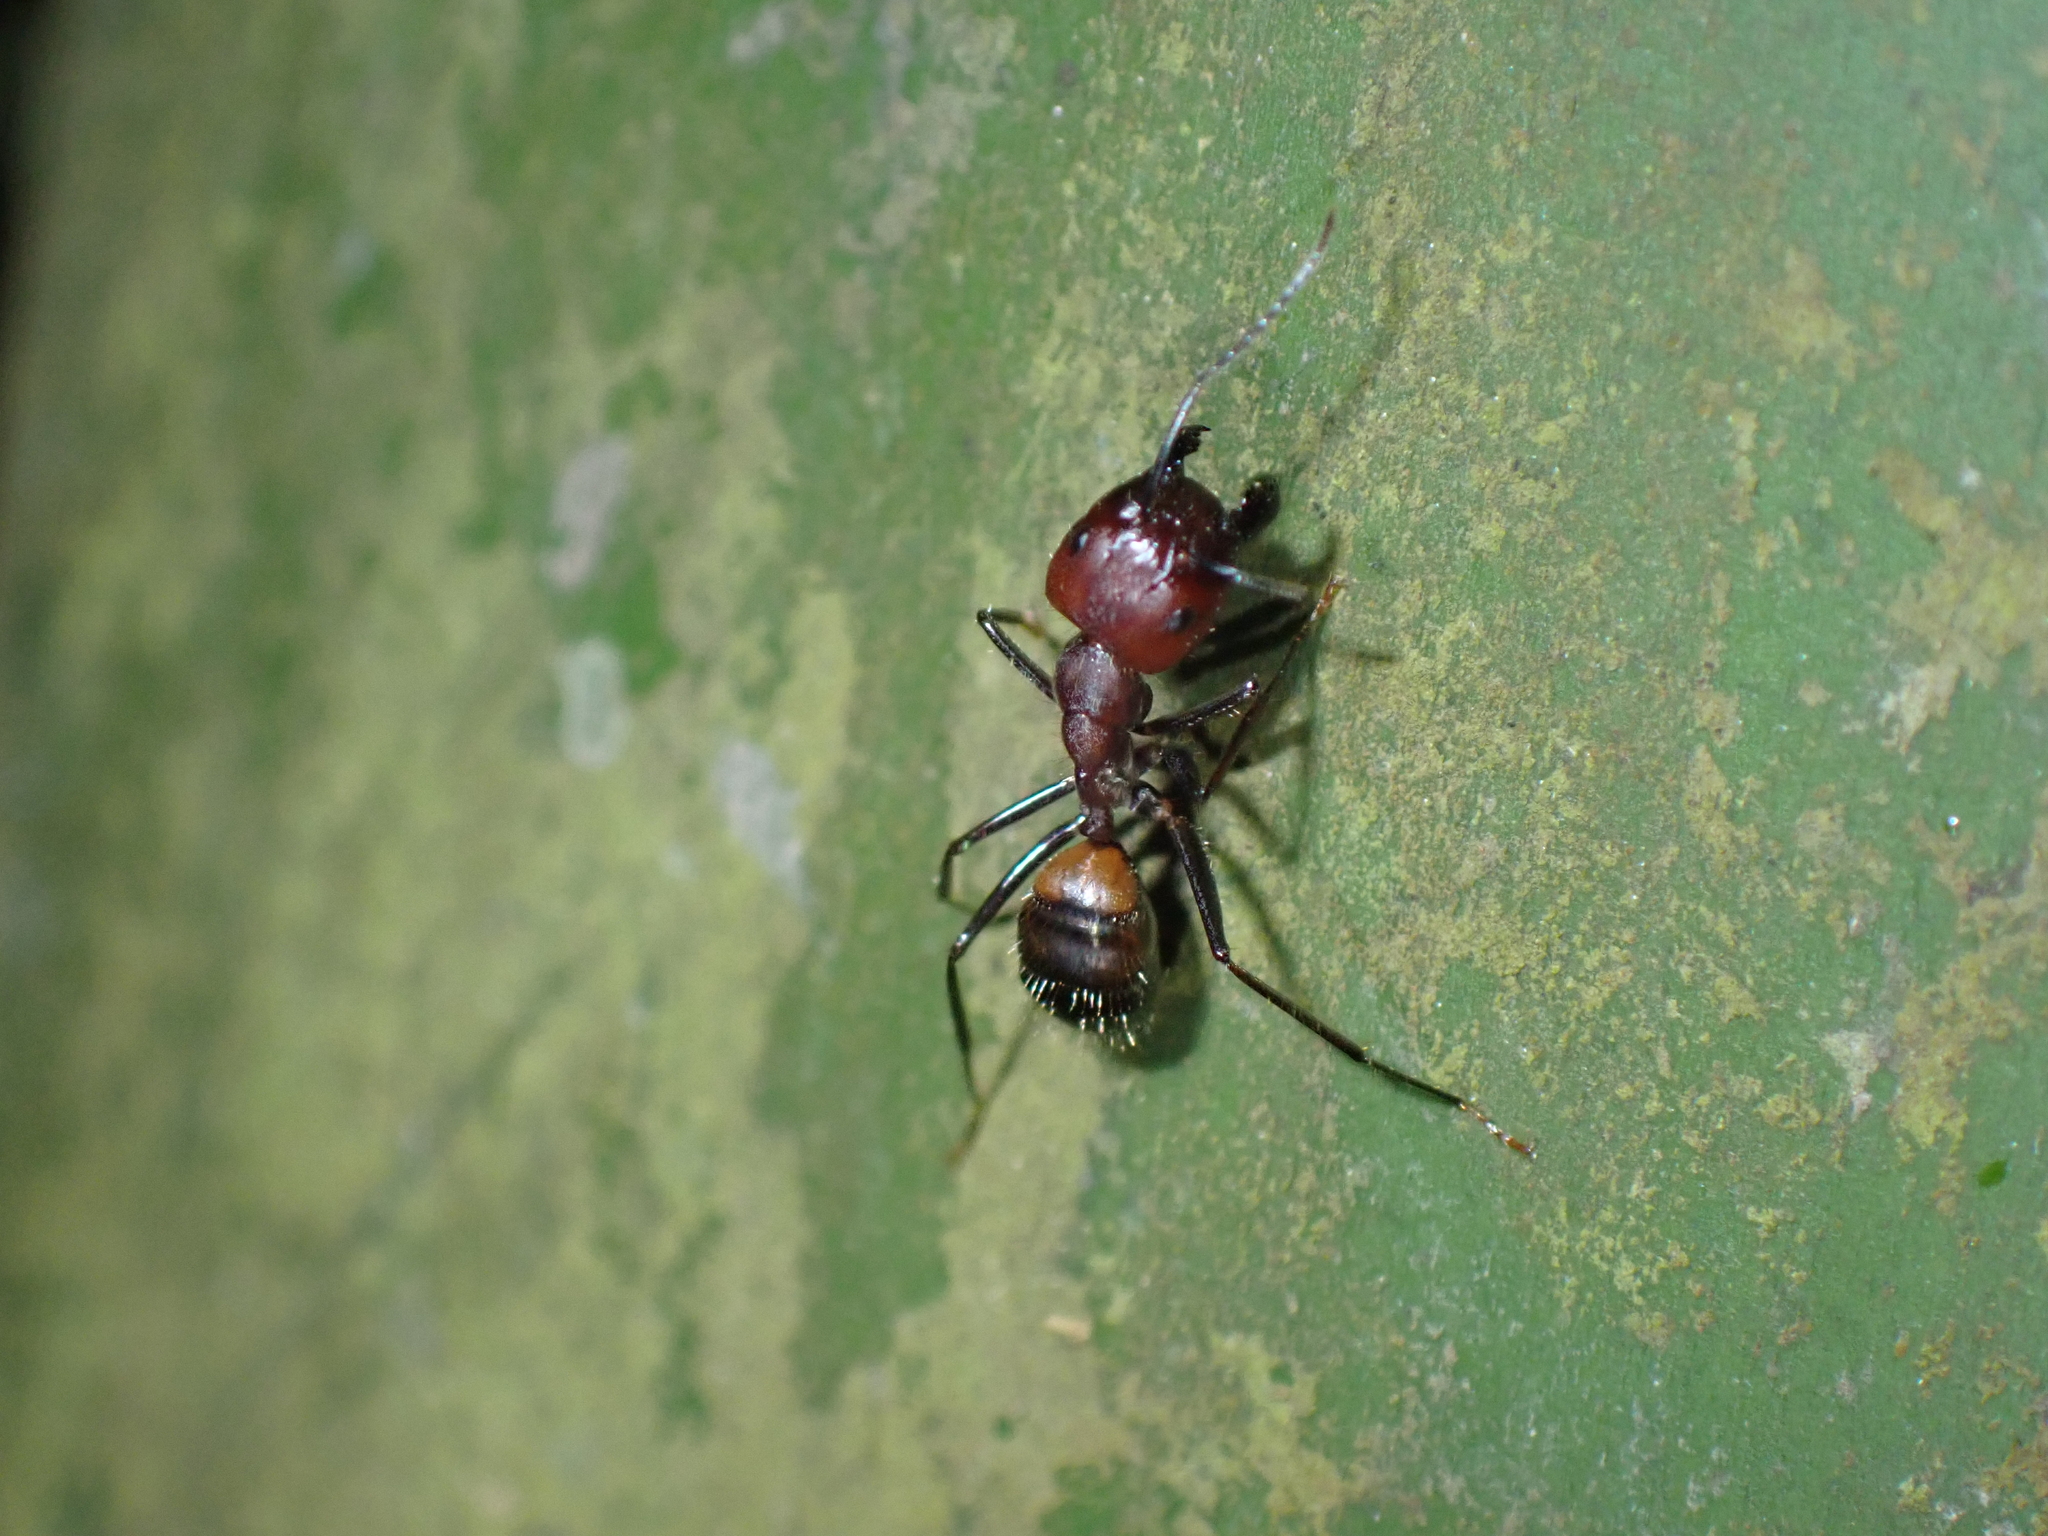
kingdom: Animalia
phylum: Arthropoda
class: Insecta
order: Hymenoptera
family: Formicidae
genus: Camponotus
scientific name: Camponotus nicobarensis
